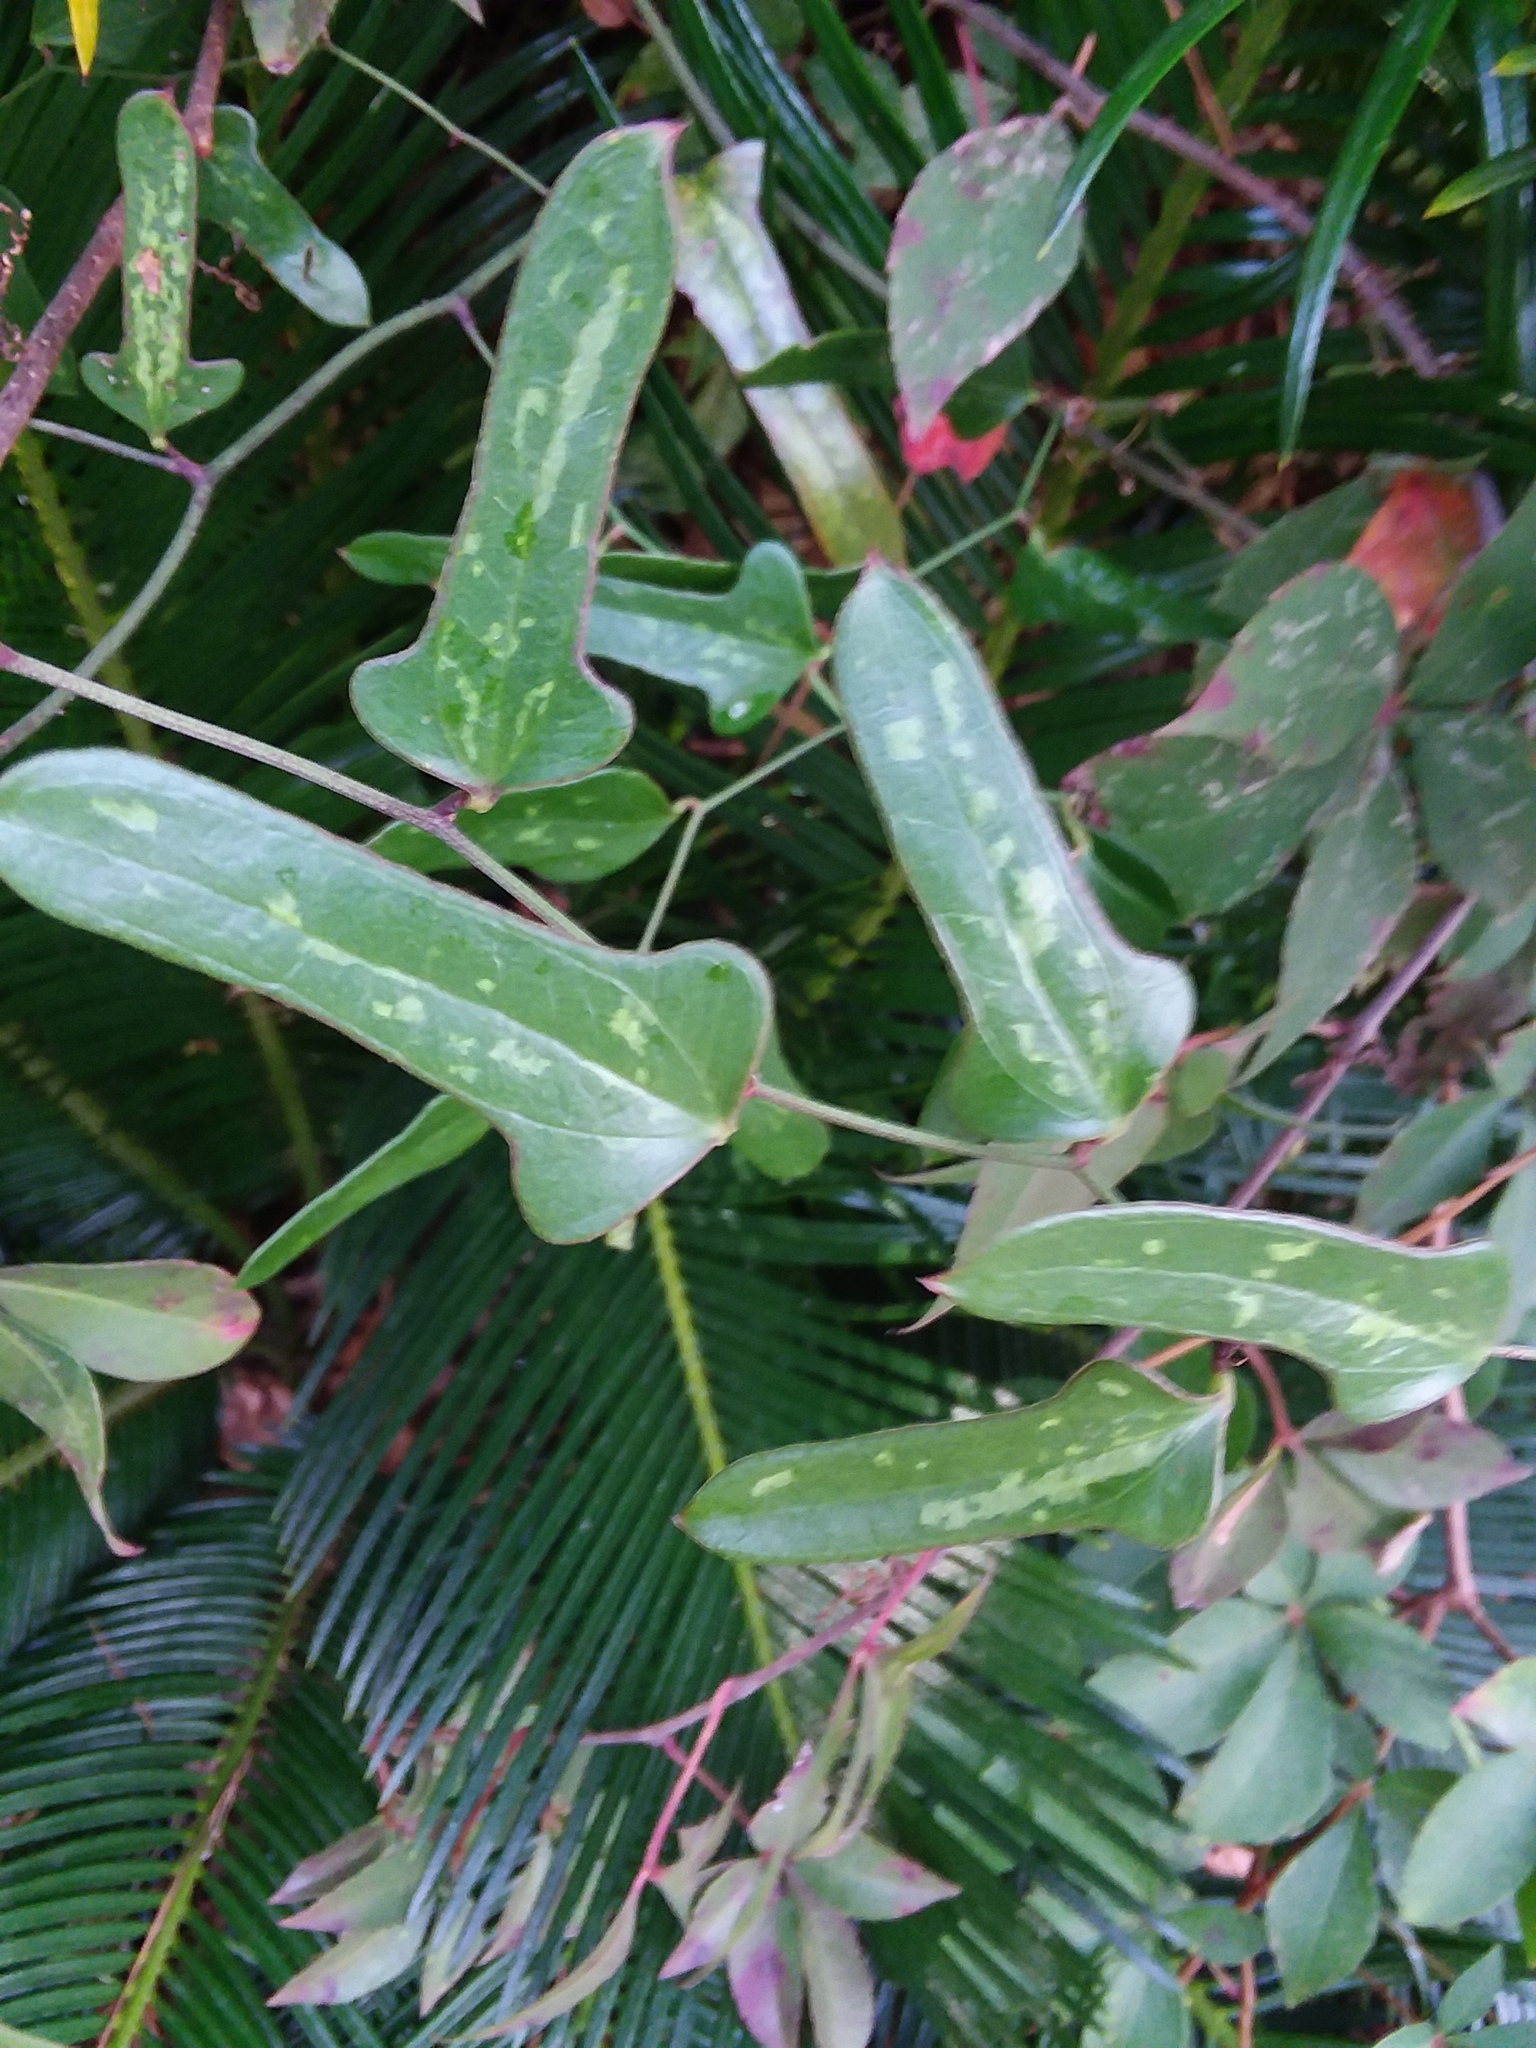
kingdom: Plantae
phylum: Tracheophyta
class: Liliopsida
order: Liliales
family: Smilacaceae
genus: Smilax
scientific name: Smilax bona-nox
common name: Catbrier
